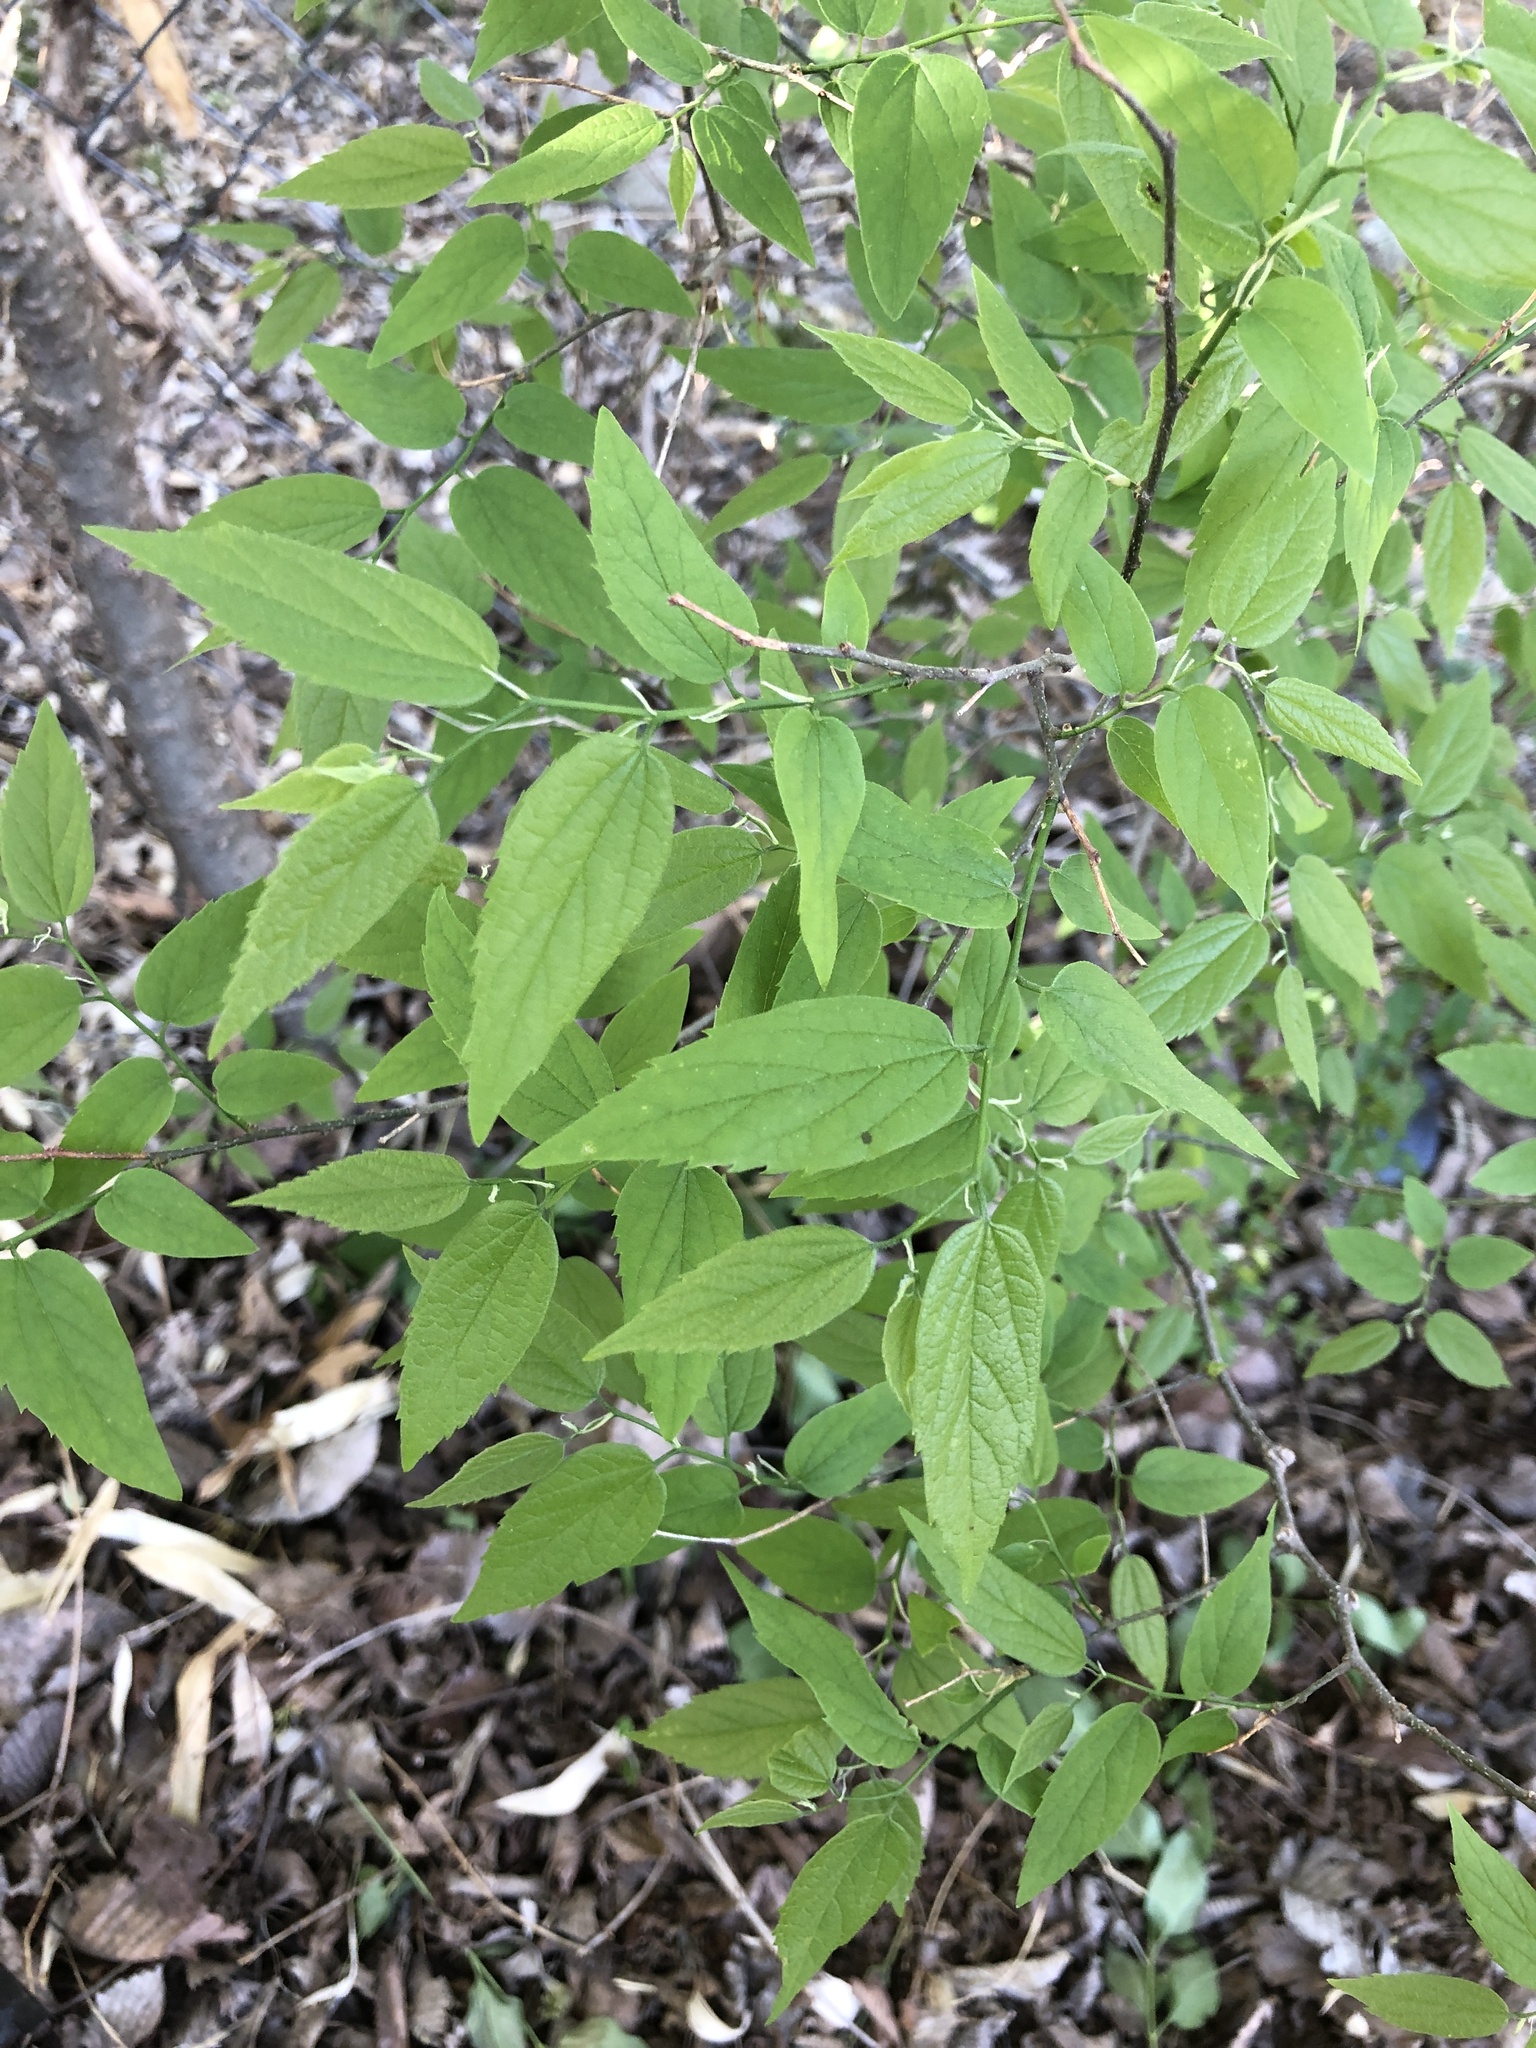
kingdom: Plantae
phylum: Tracheophyta
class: Magnoliopsida
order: Rosales
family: Cannabaceae
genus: Celtis
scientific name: Celtis laevigata
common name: Sugarberry
